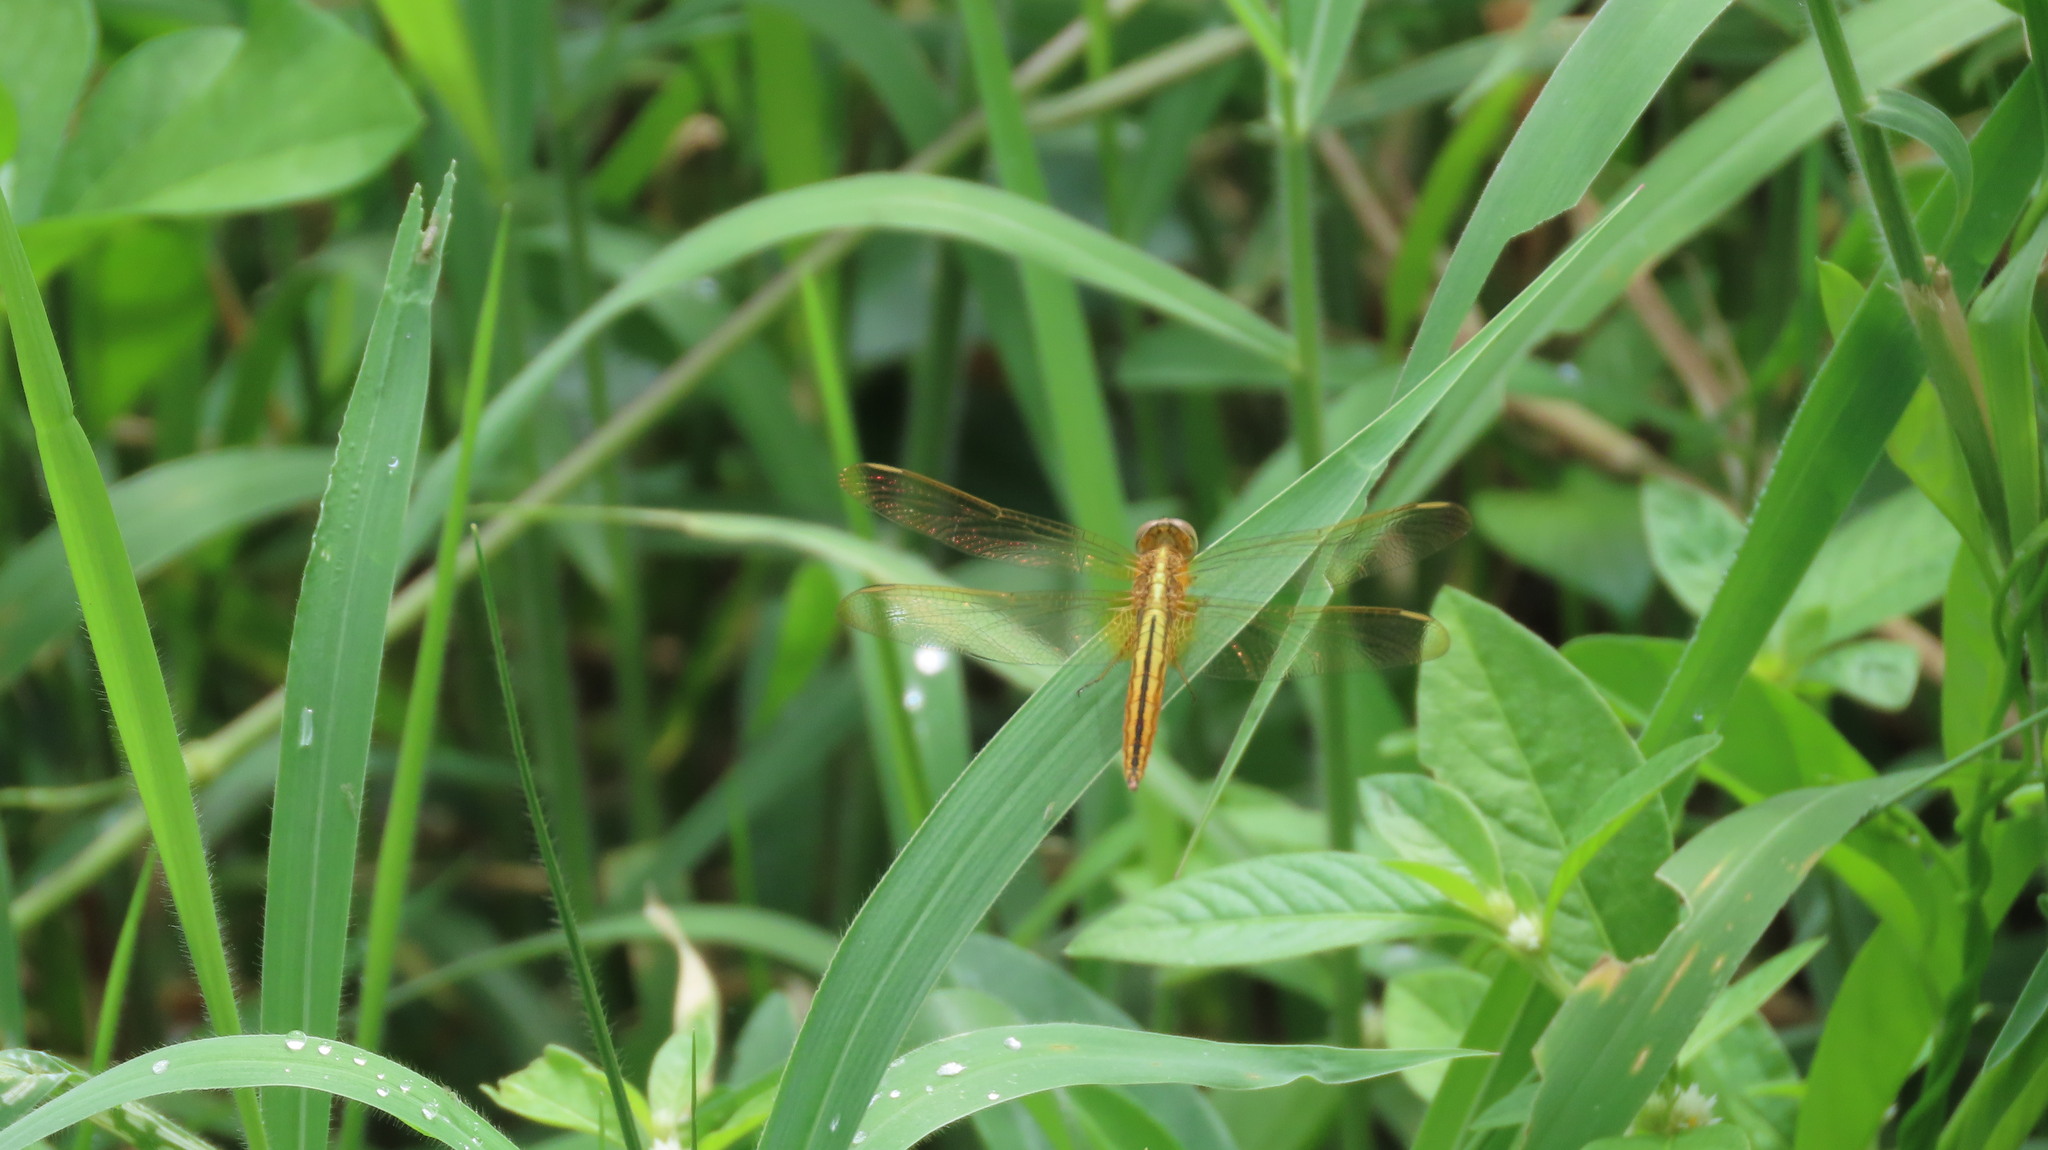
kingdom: Animalia
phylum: Arthropoda
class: Insecta
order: Odonata
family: Libellulidae
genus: Crocothemis
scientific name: Crocothemis servilia
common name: Scarlet skimmer
